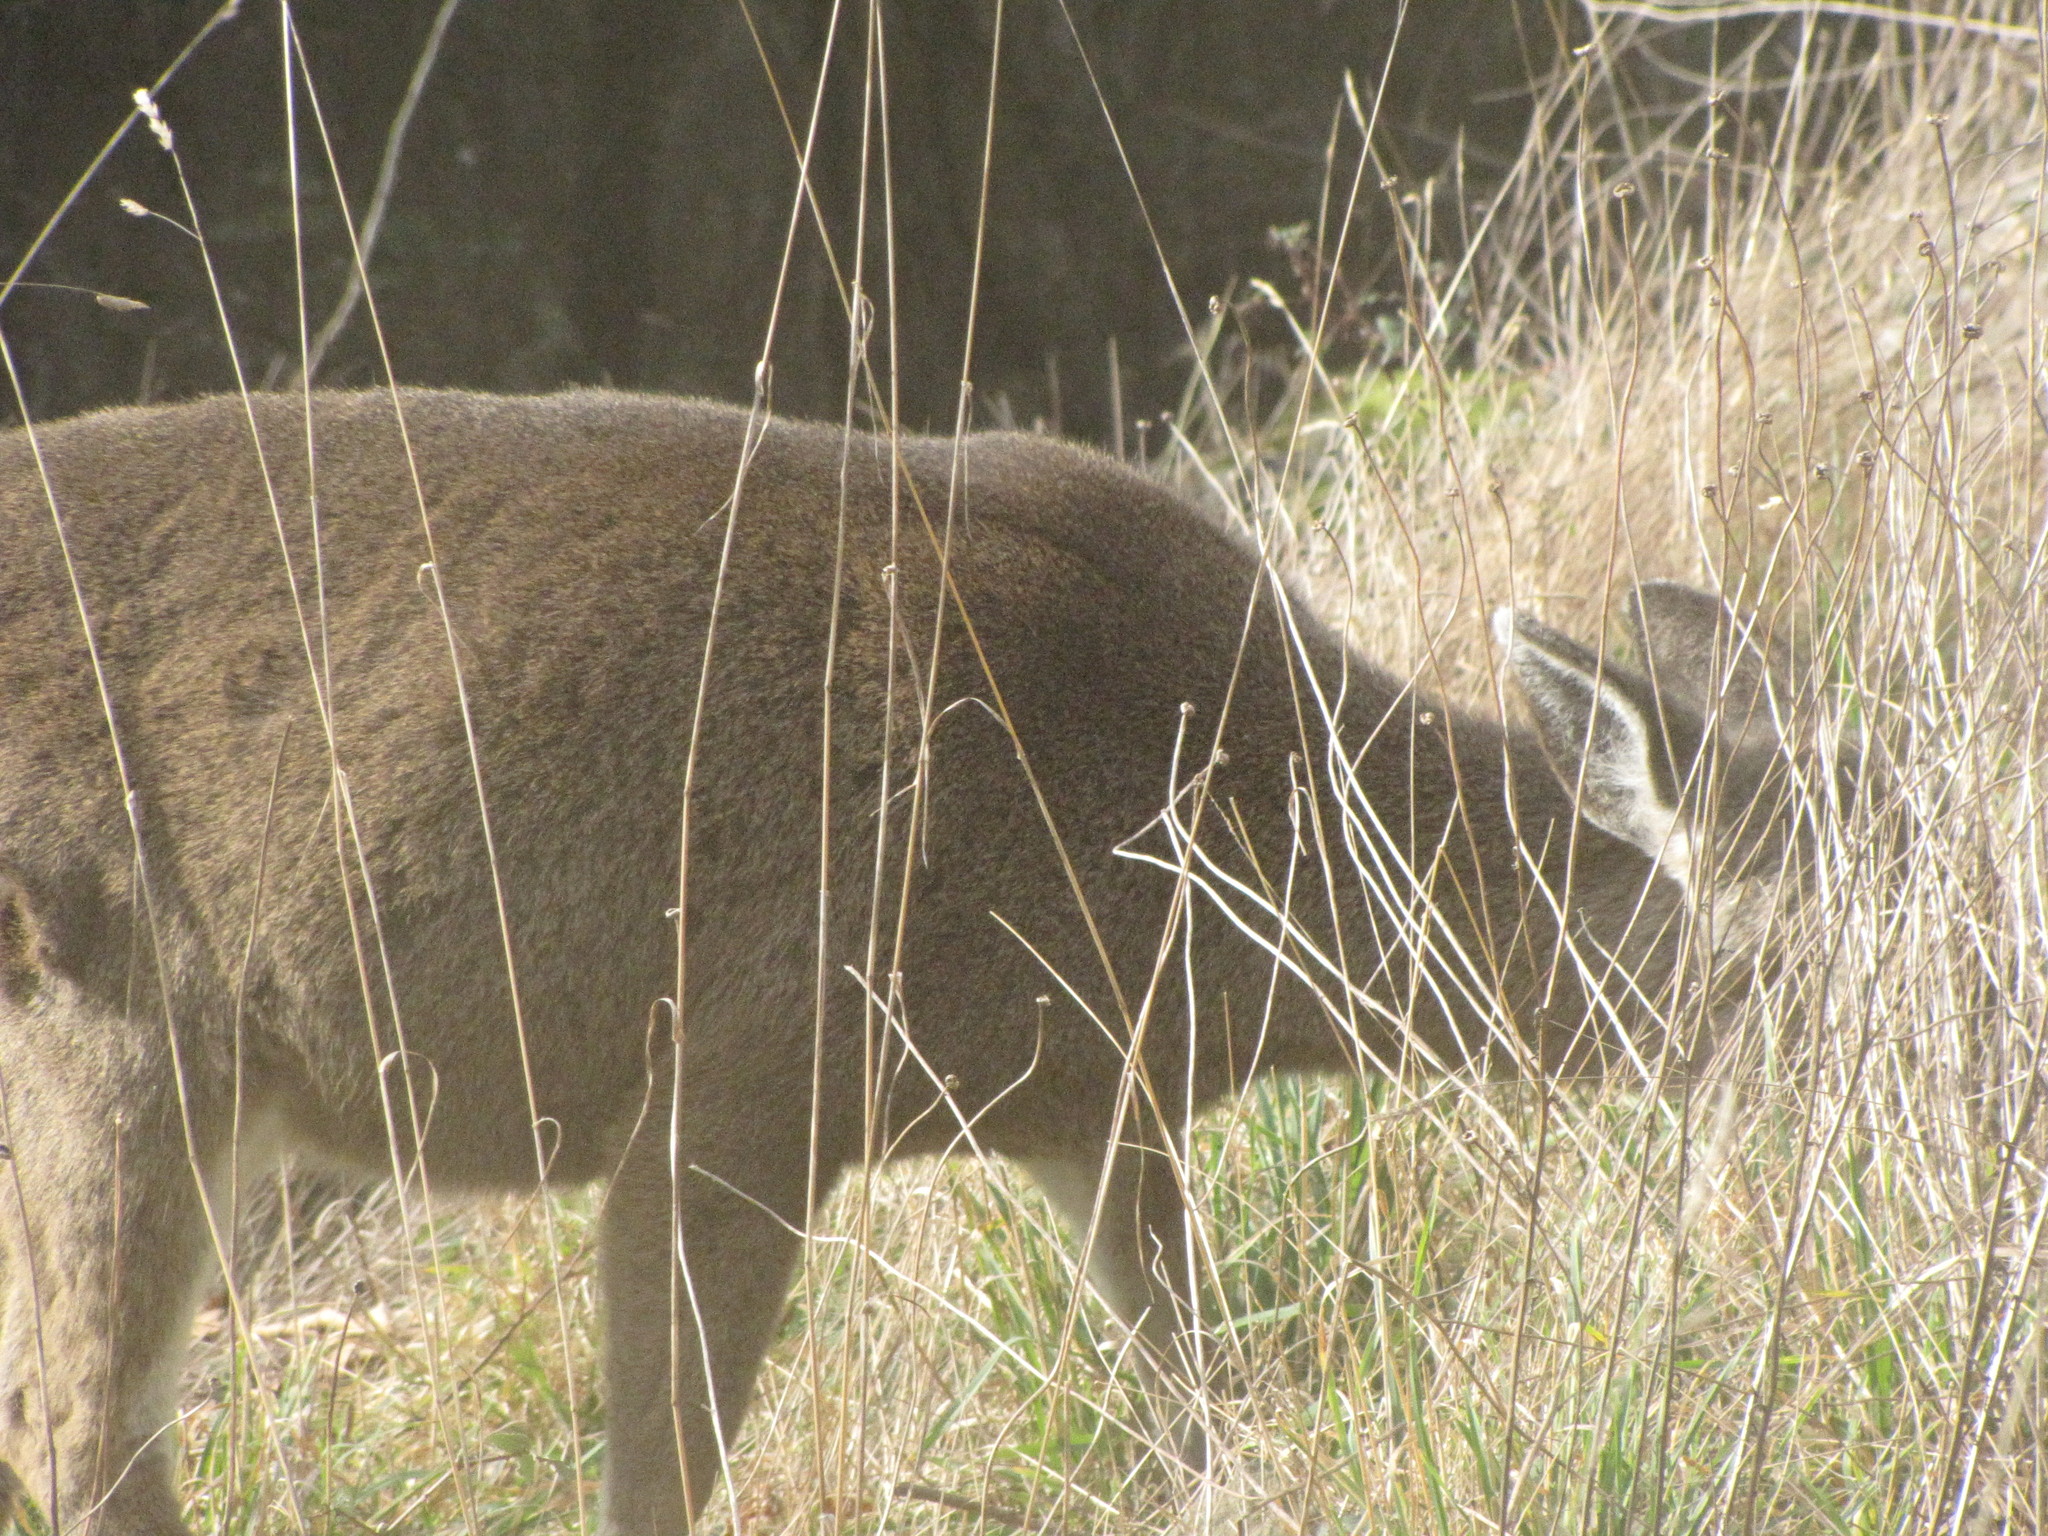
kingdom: Animalia
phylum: Chordata
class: Mammalia
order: Artiodactyla
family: Cervidae
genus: Odocoileus
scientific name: Odocoileus hemionus
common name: Mule deer
